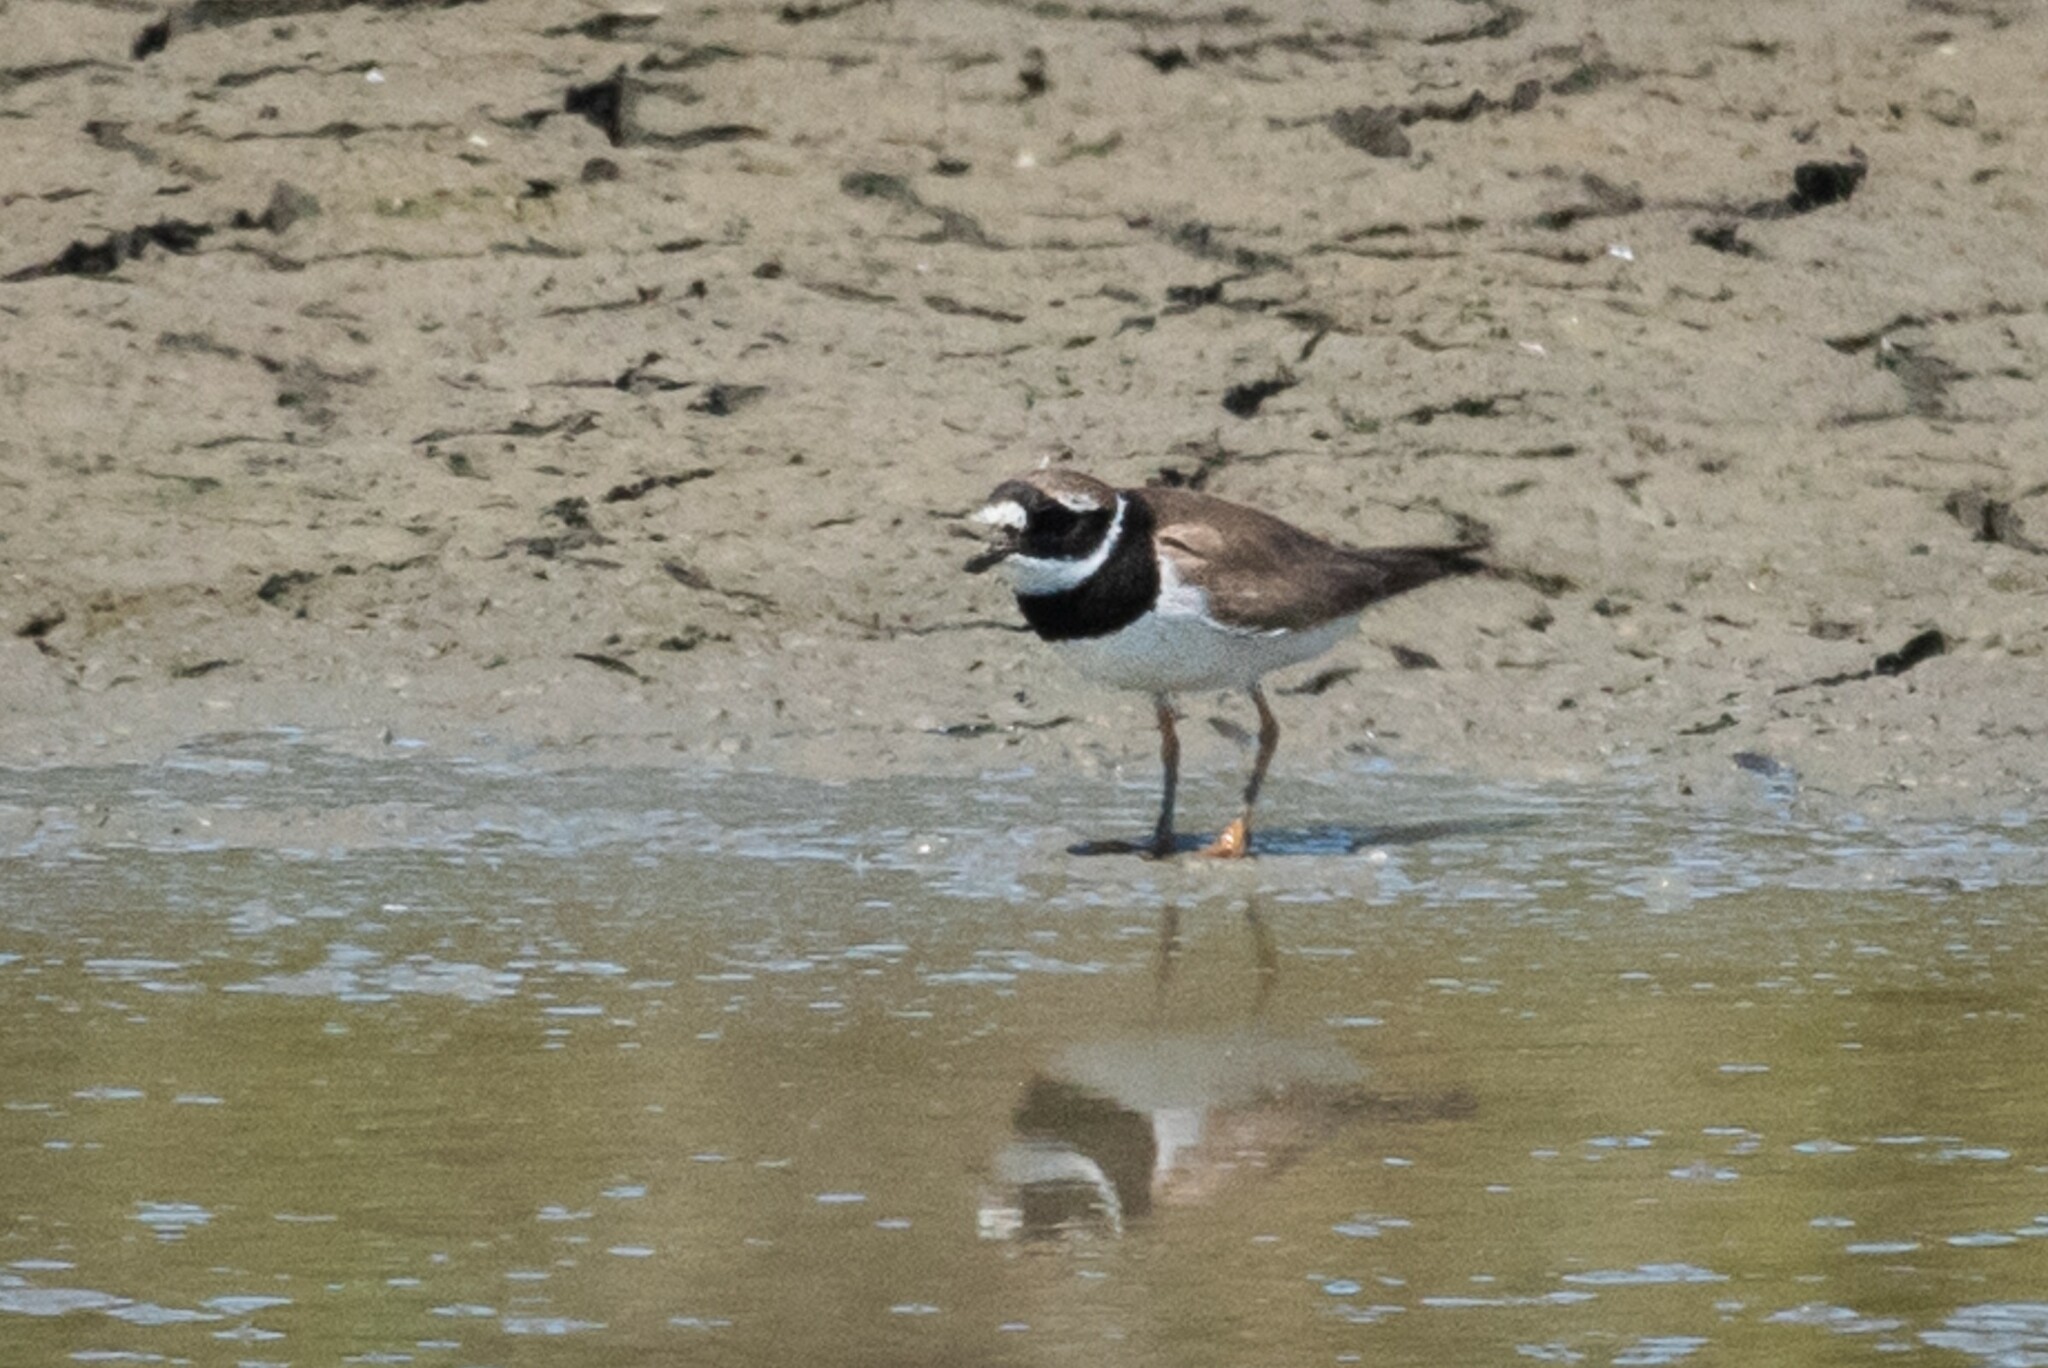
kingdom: Animalia
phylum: Chordata
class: Aves
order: Charadriiformes
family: Charadriidae
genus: Charadrius
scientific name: Charadrius hiaticula
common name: Common ringed plover
